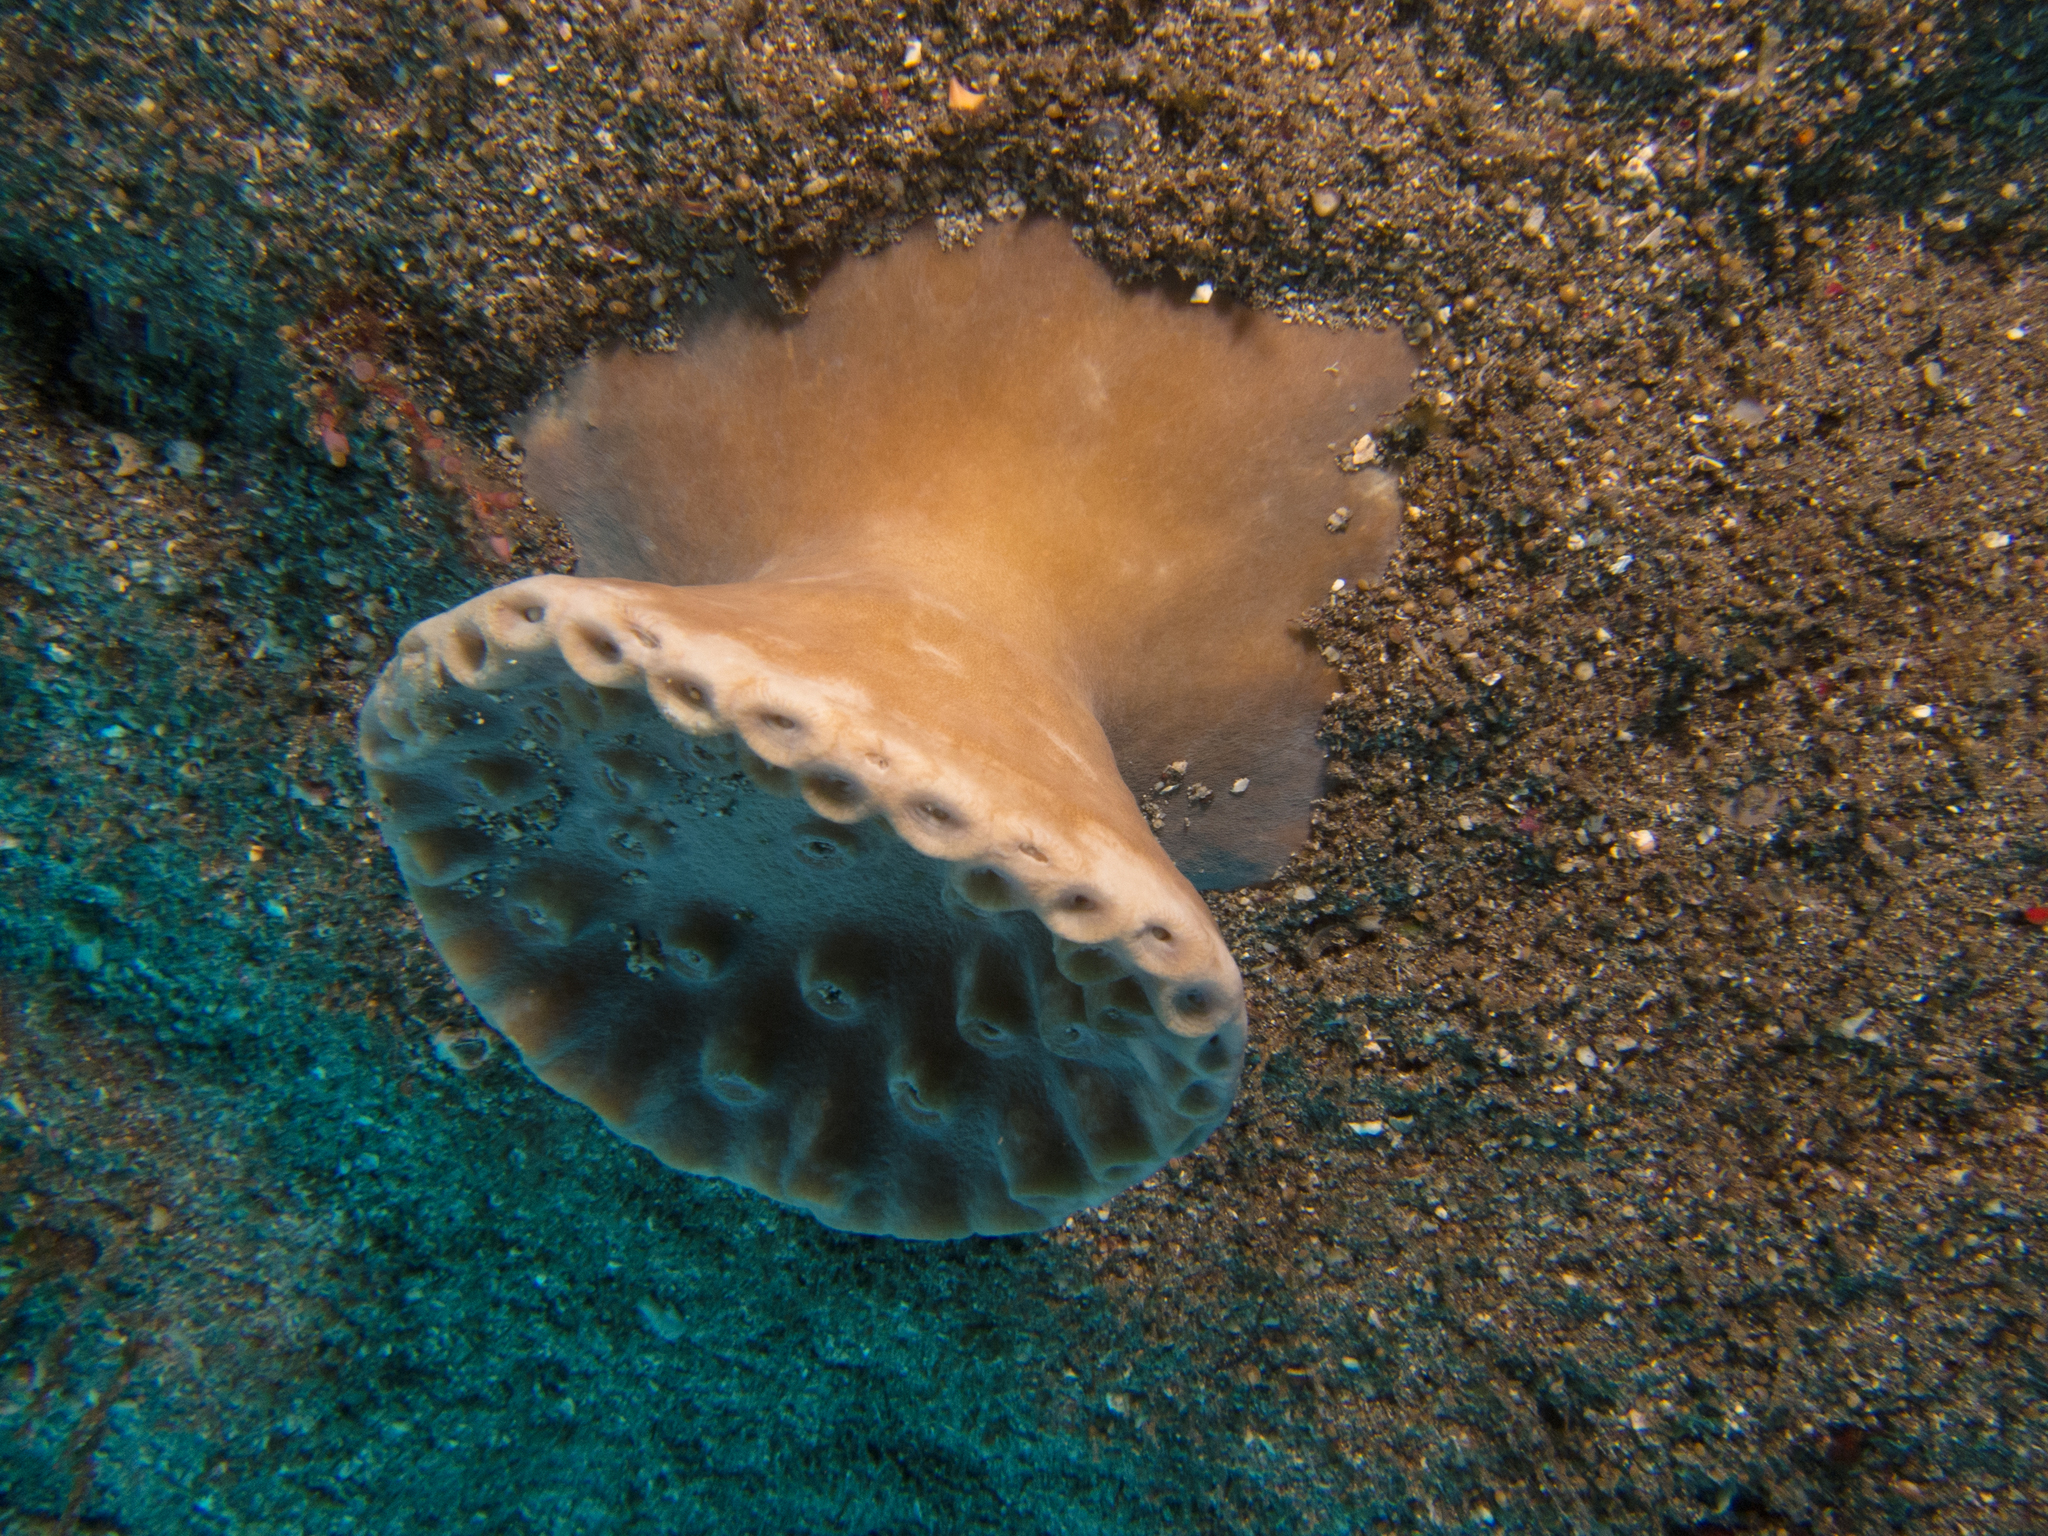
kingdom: Animalia
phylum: Cnidaria
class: Anthozoa
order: Scleractinia
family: Dendrophylliidae
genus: Duncanopsammia
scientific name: Duncanopsammia peltata
